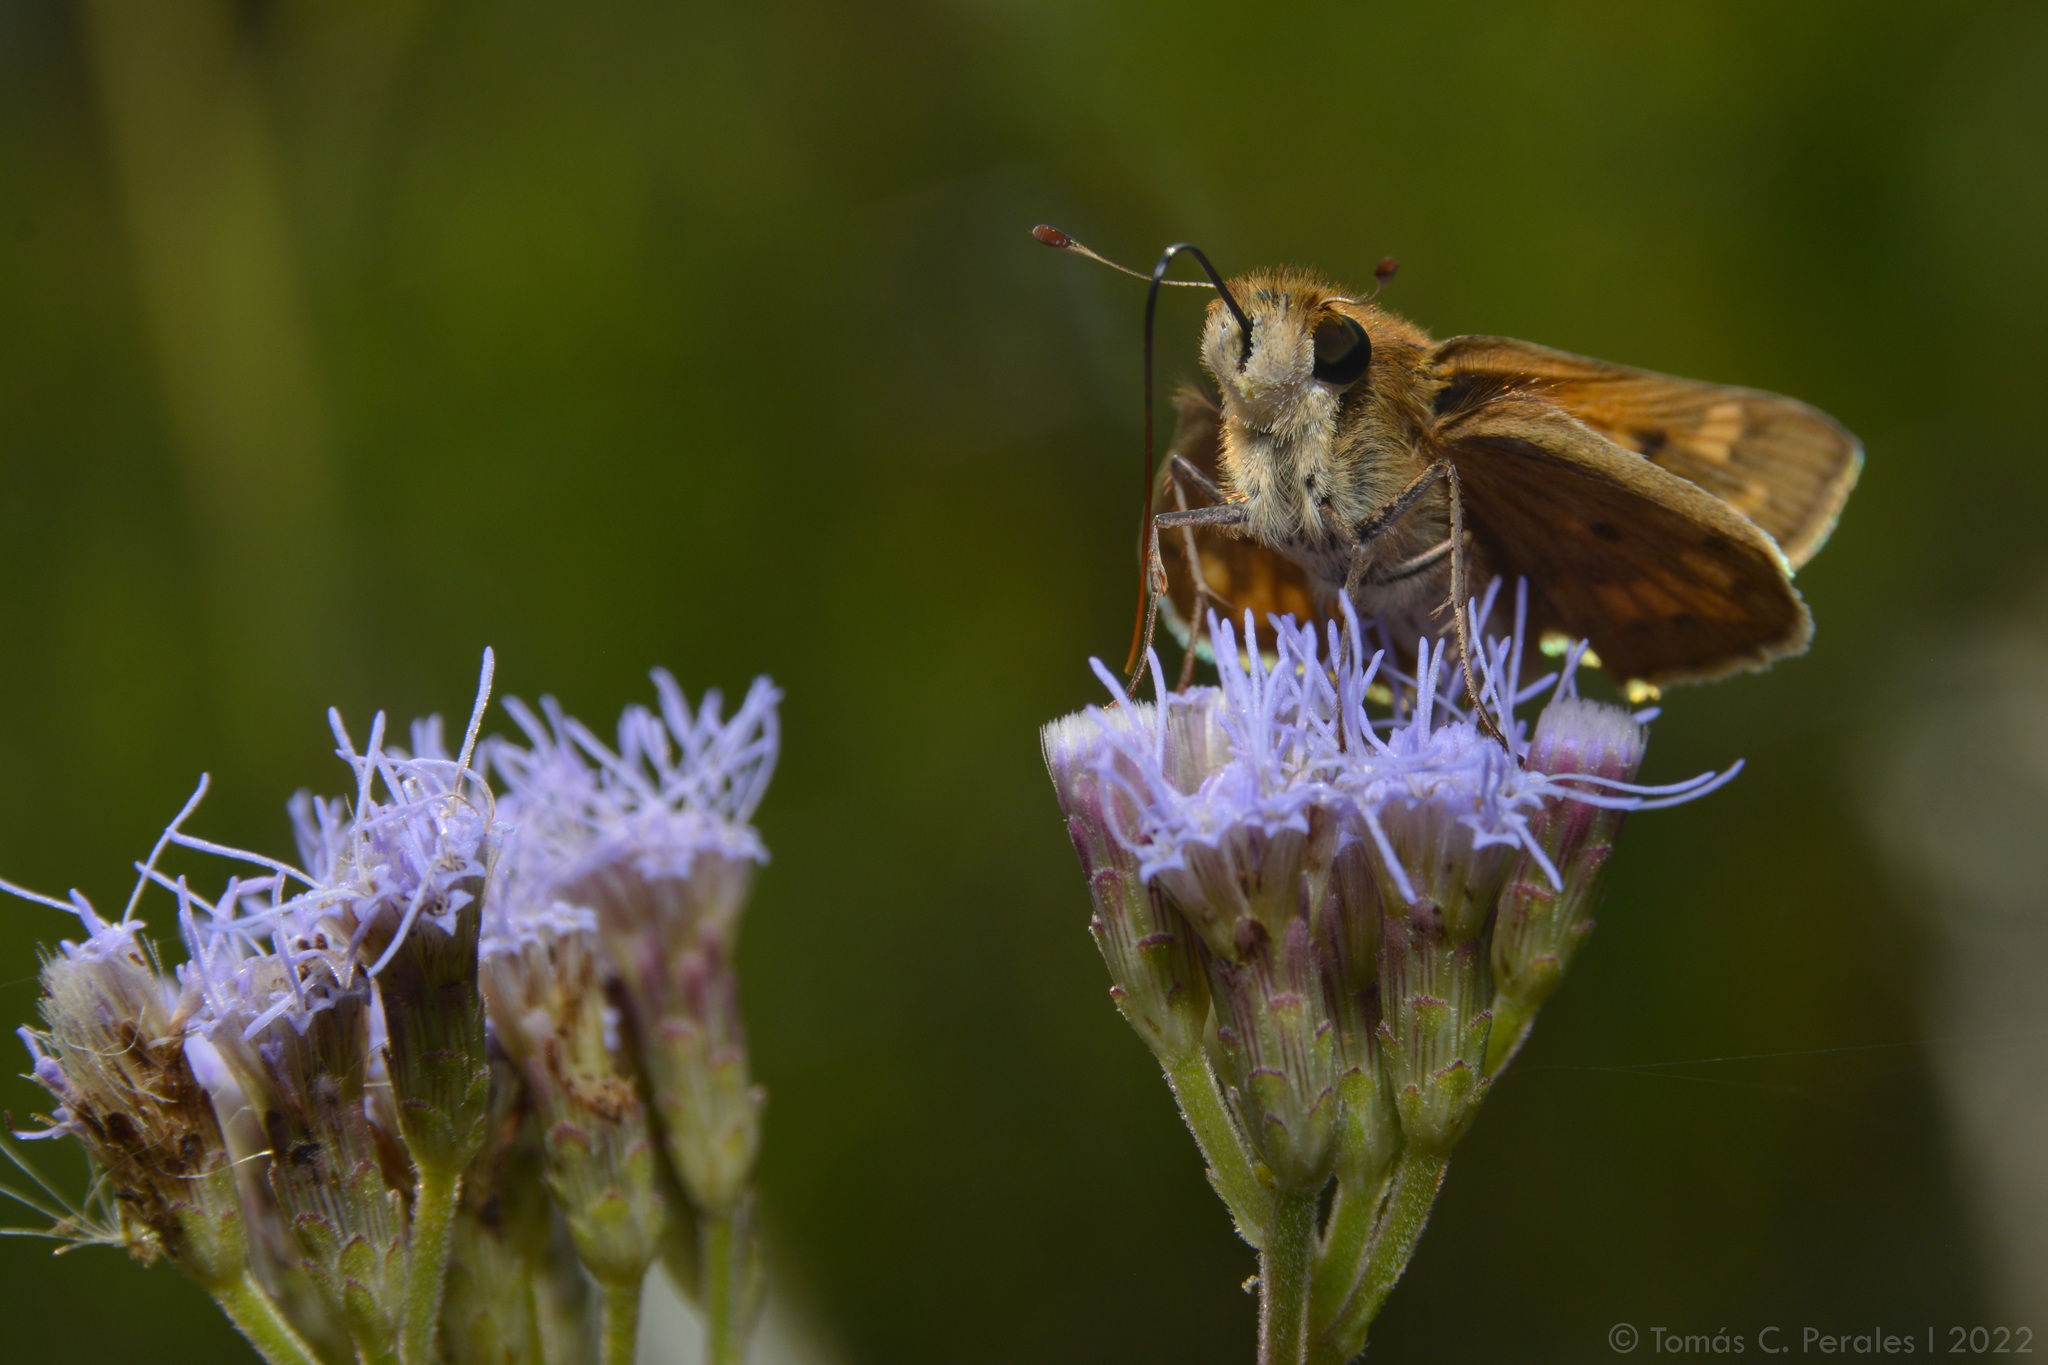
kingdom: Animalia
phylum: Arthropoda
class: Insecta
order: Lepidoptera
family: Hesperiidae
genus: Hylephila
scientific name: Hylephila phyleus
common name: Fiery skipper
